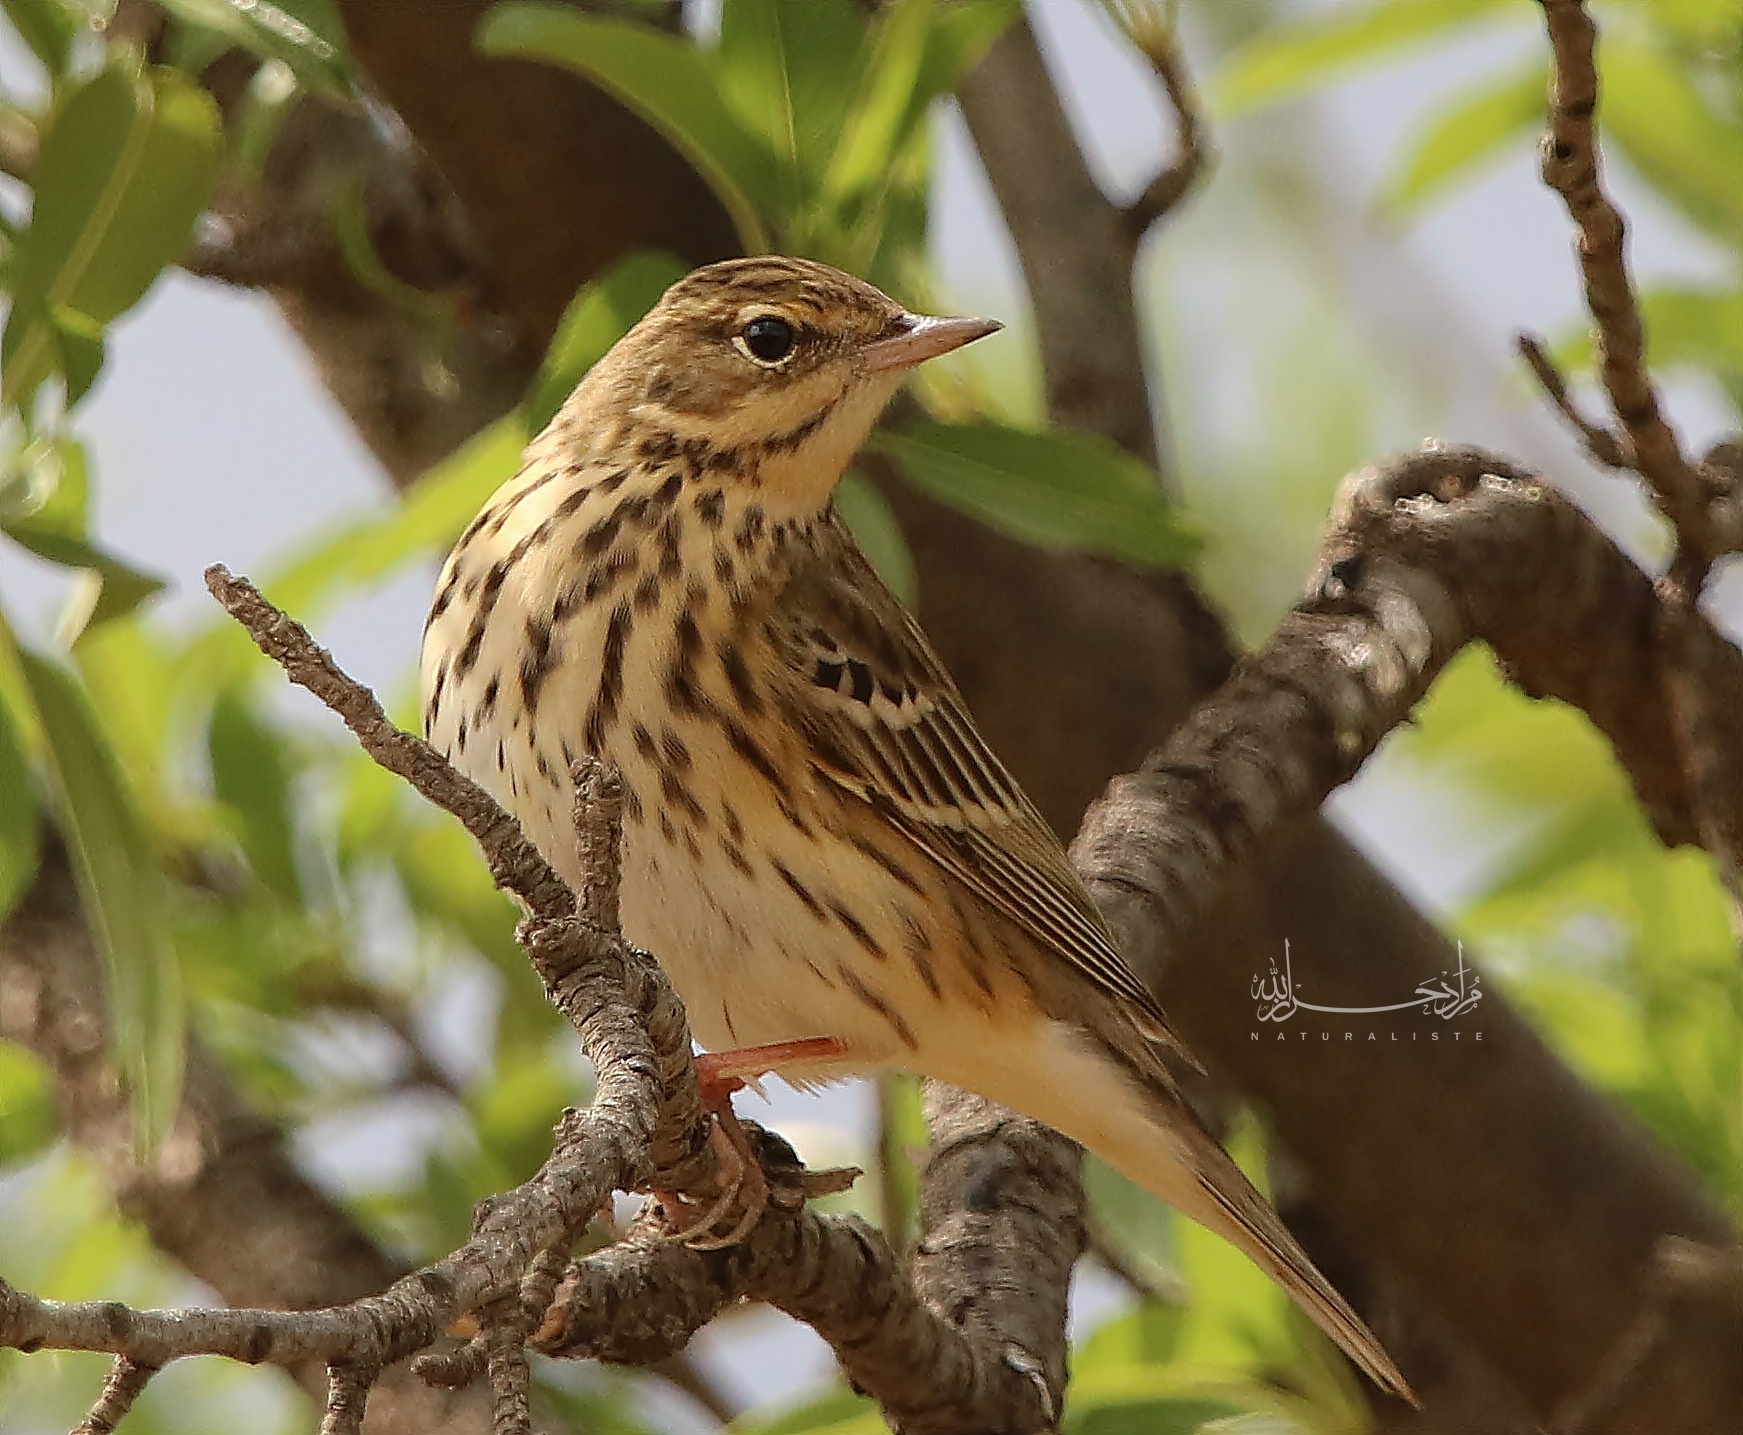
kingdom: Animalia
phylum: Chordata
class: Aves
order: Passeriformes
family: Motacillidae
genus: Anthus
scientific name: Anthus trivialis
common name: Tree pipit
